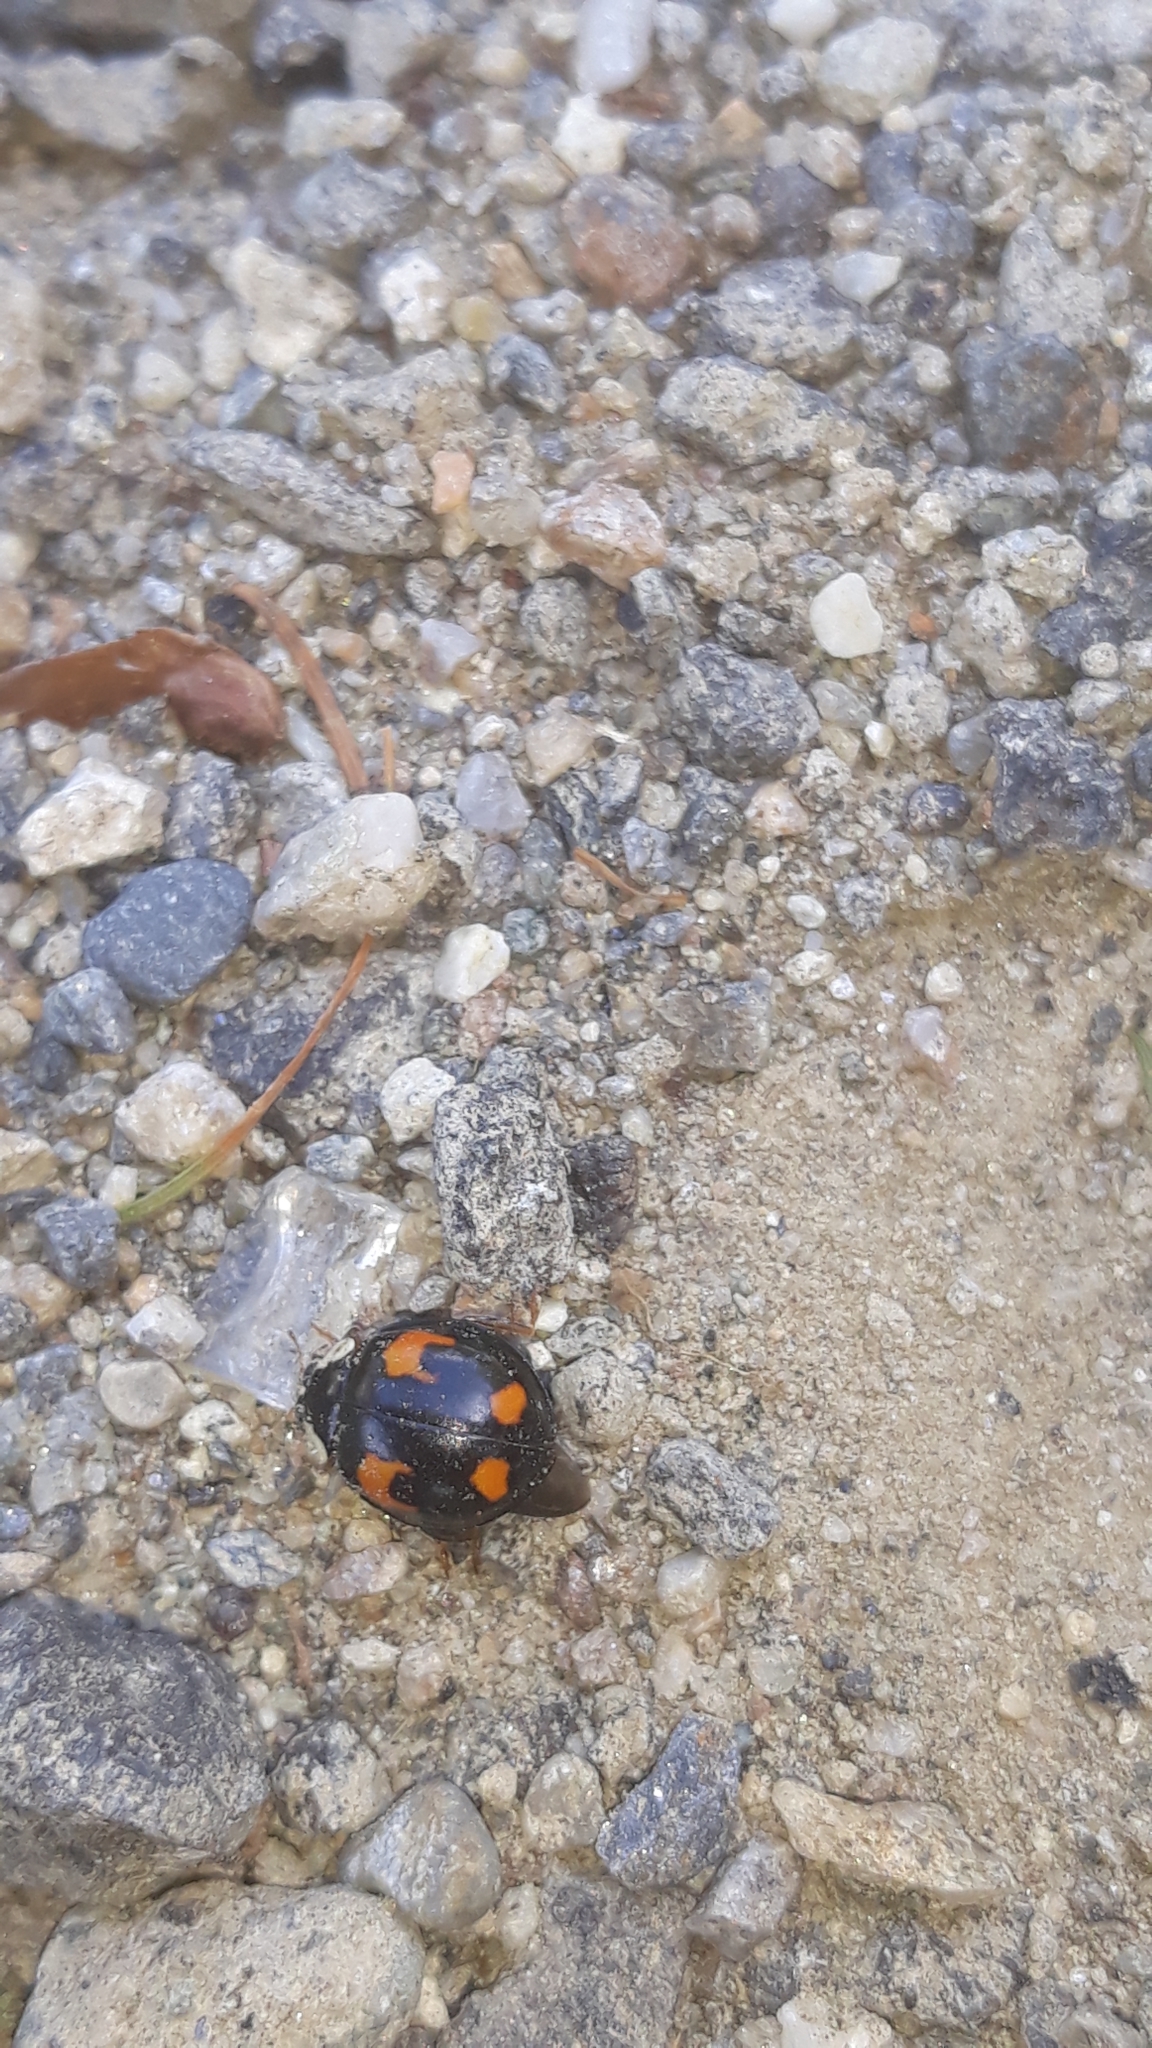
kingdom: Animalia
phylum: Arthropoda
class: Insecta
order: Coleoptera
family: Coccinellidae
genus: Harmonia
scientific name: Harmonia axyridis
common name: Harlequin ladybird
